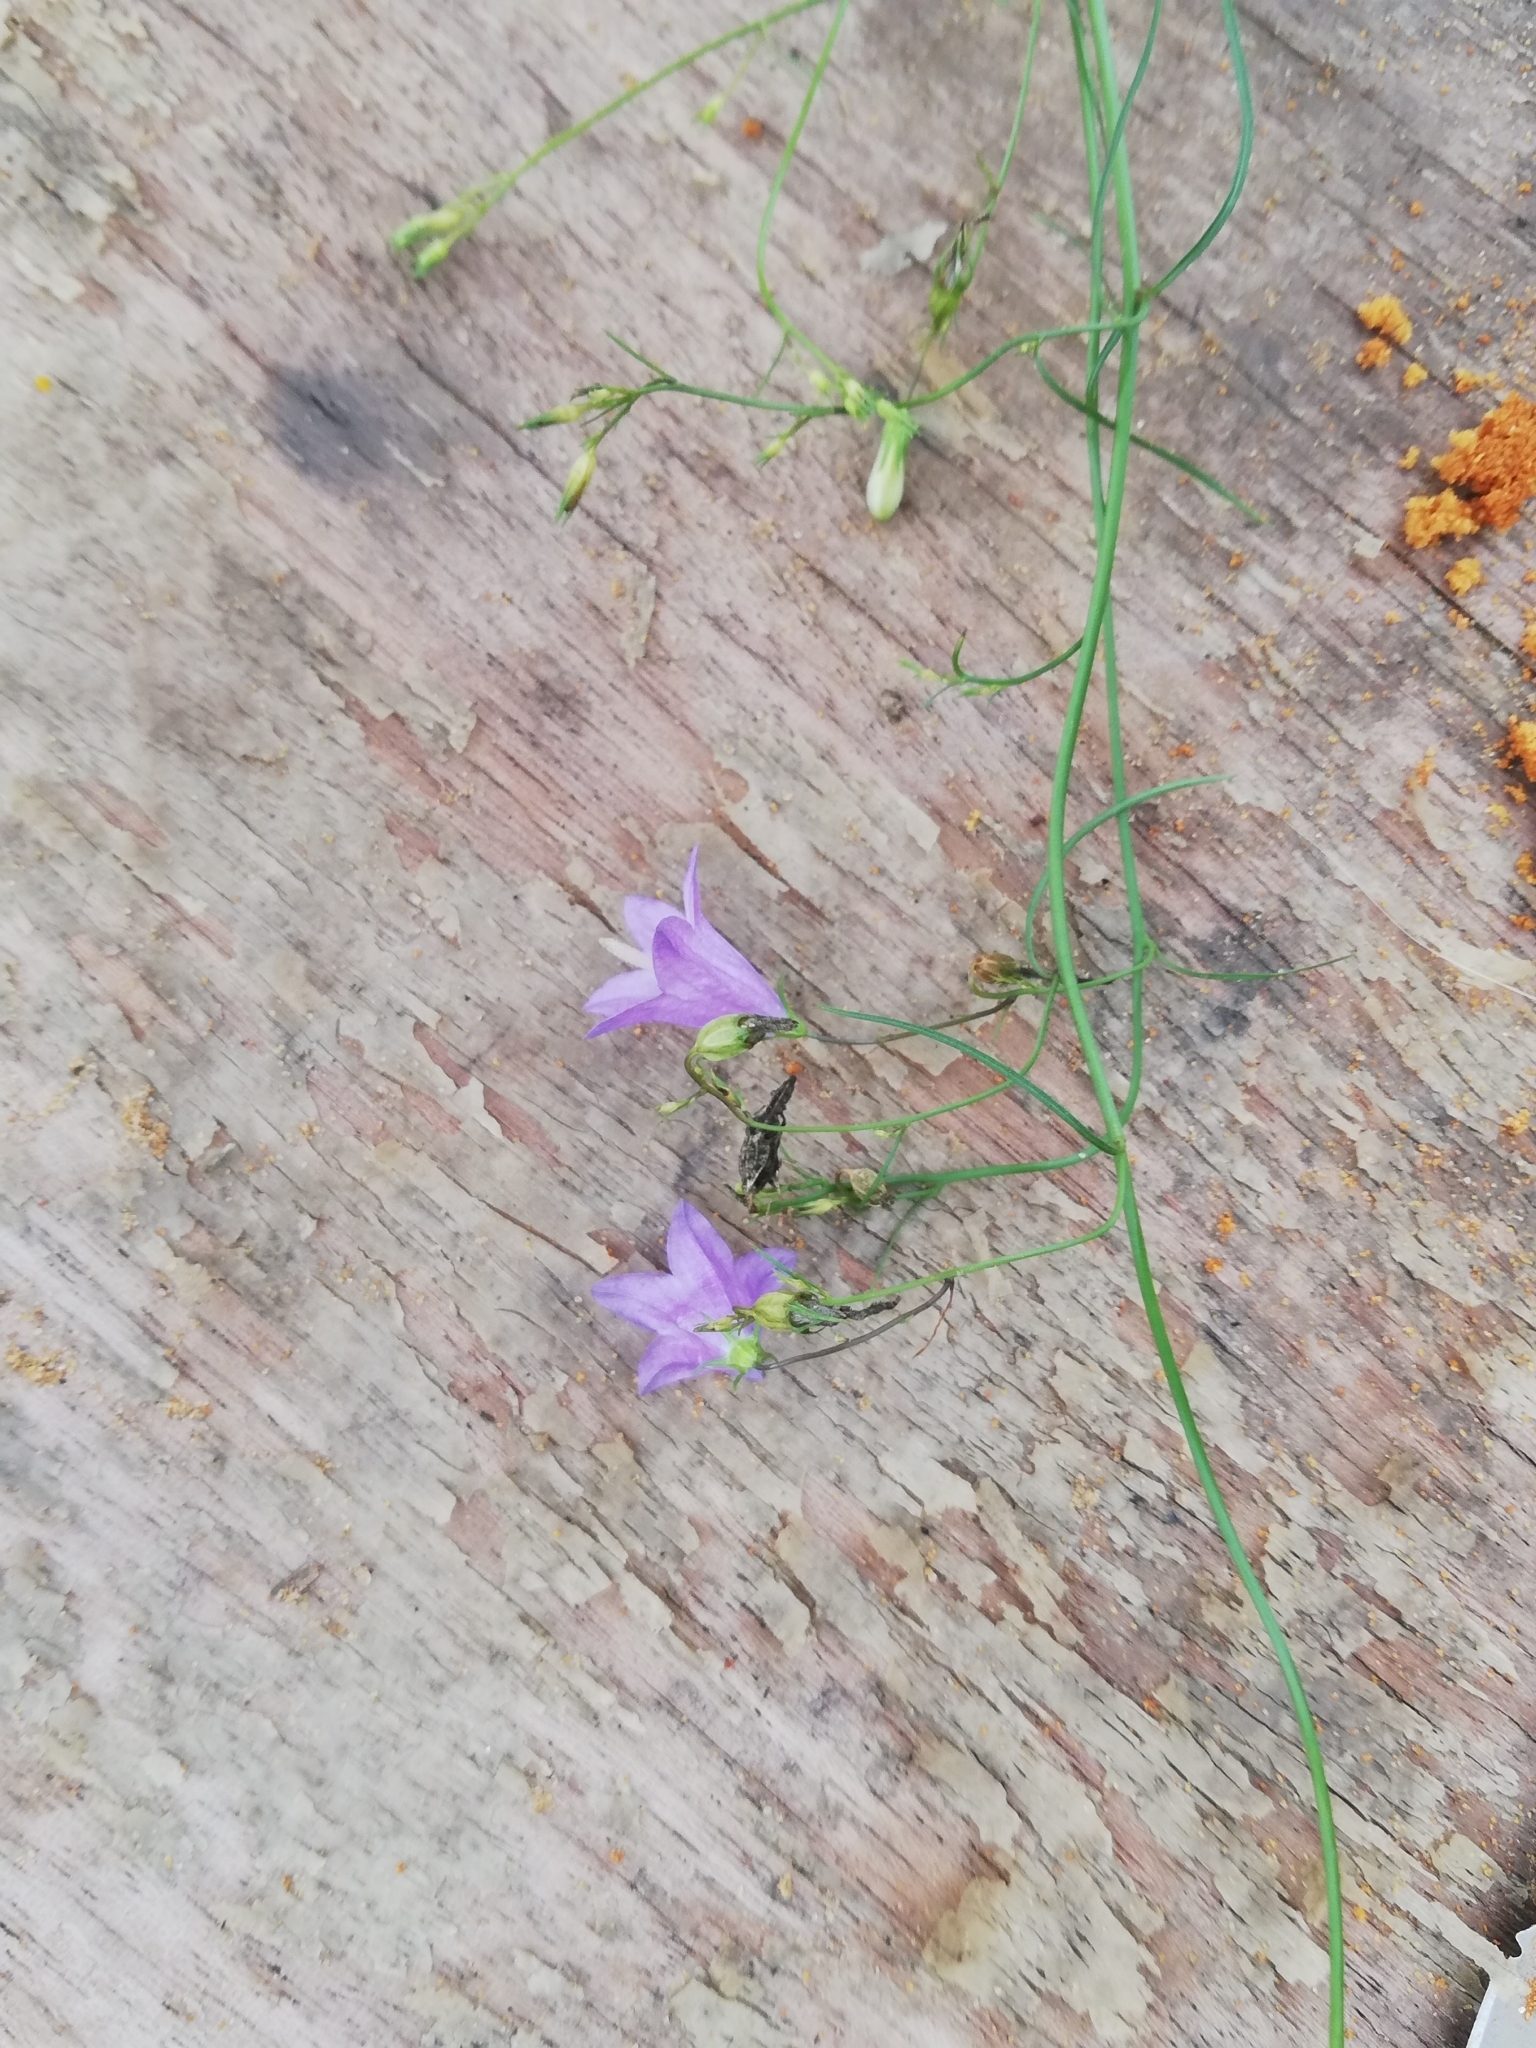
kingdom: Plantae
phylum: Tracheophyta
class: Magnoliopsida
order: Asterales
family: Campanulaceae
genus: Campanula
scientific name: Campanula rotundifolia
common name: Harebell
